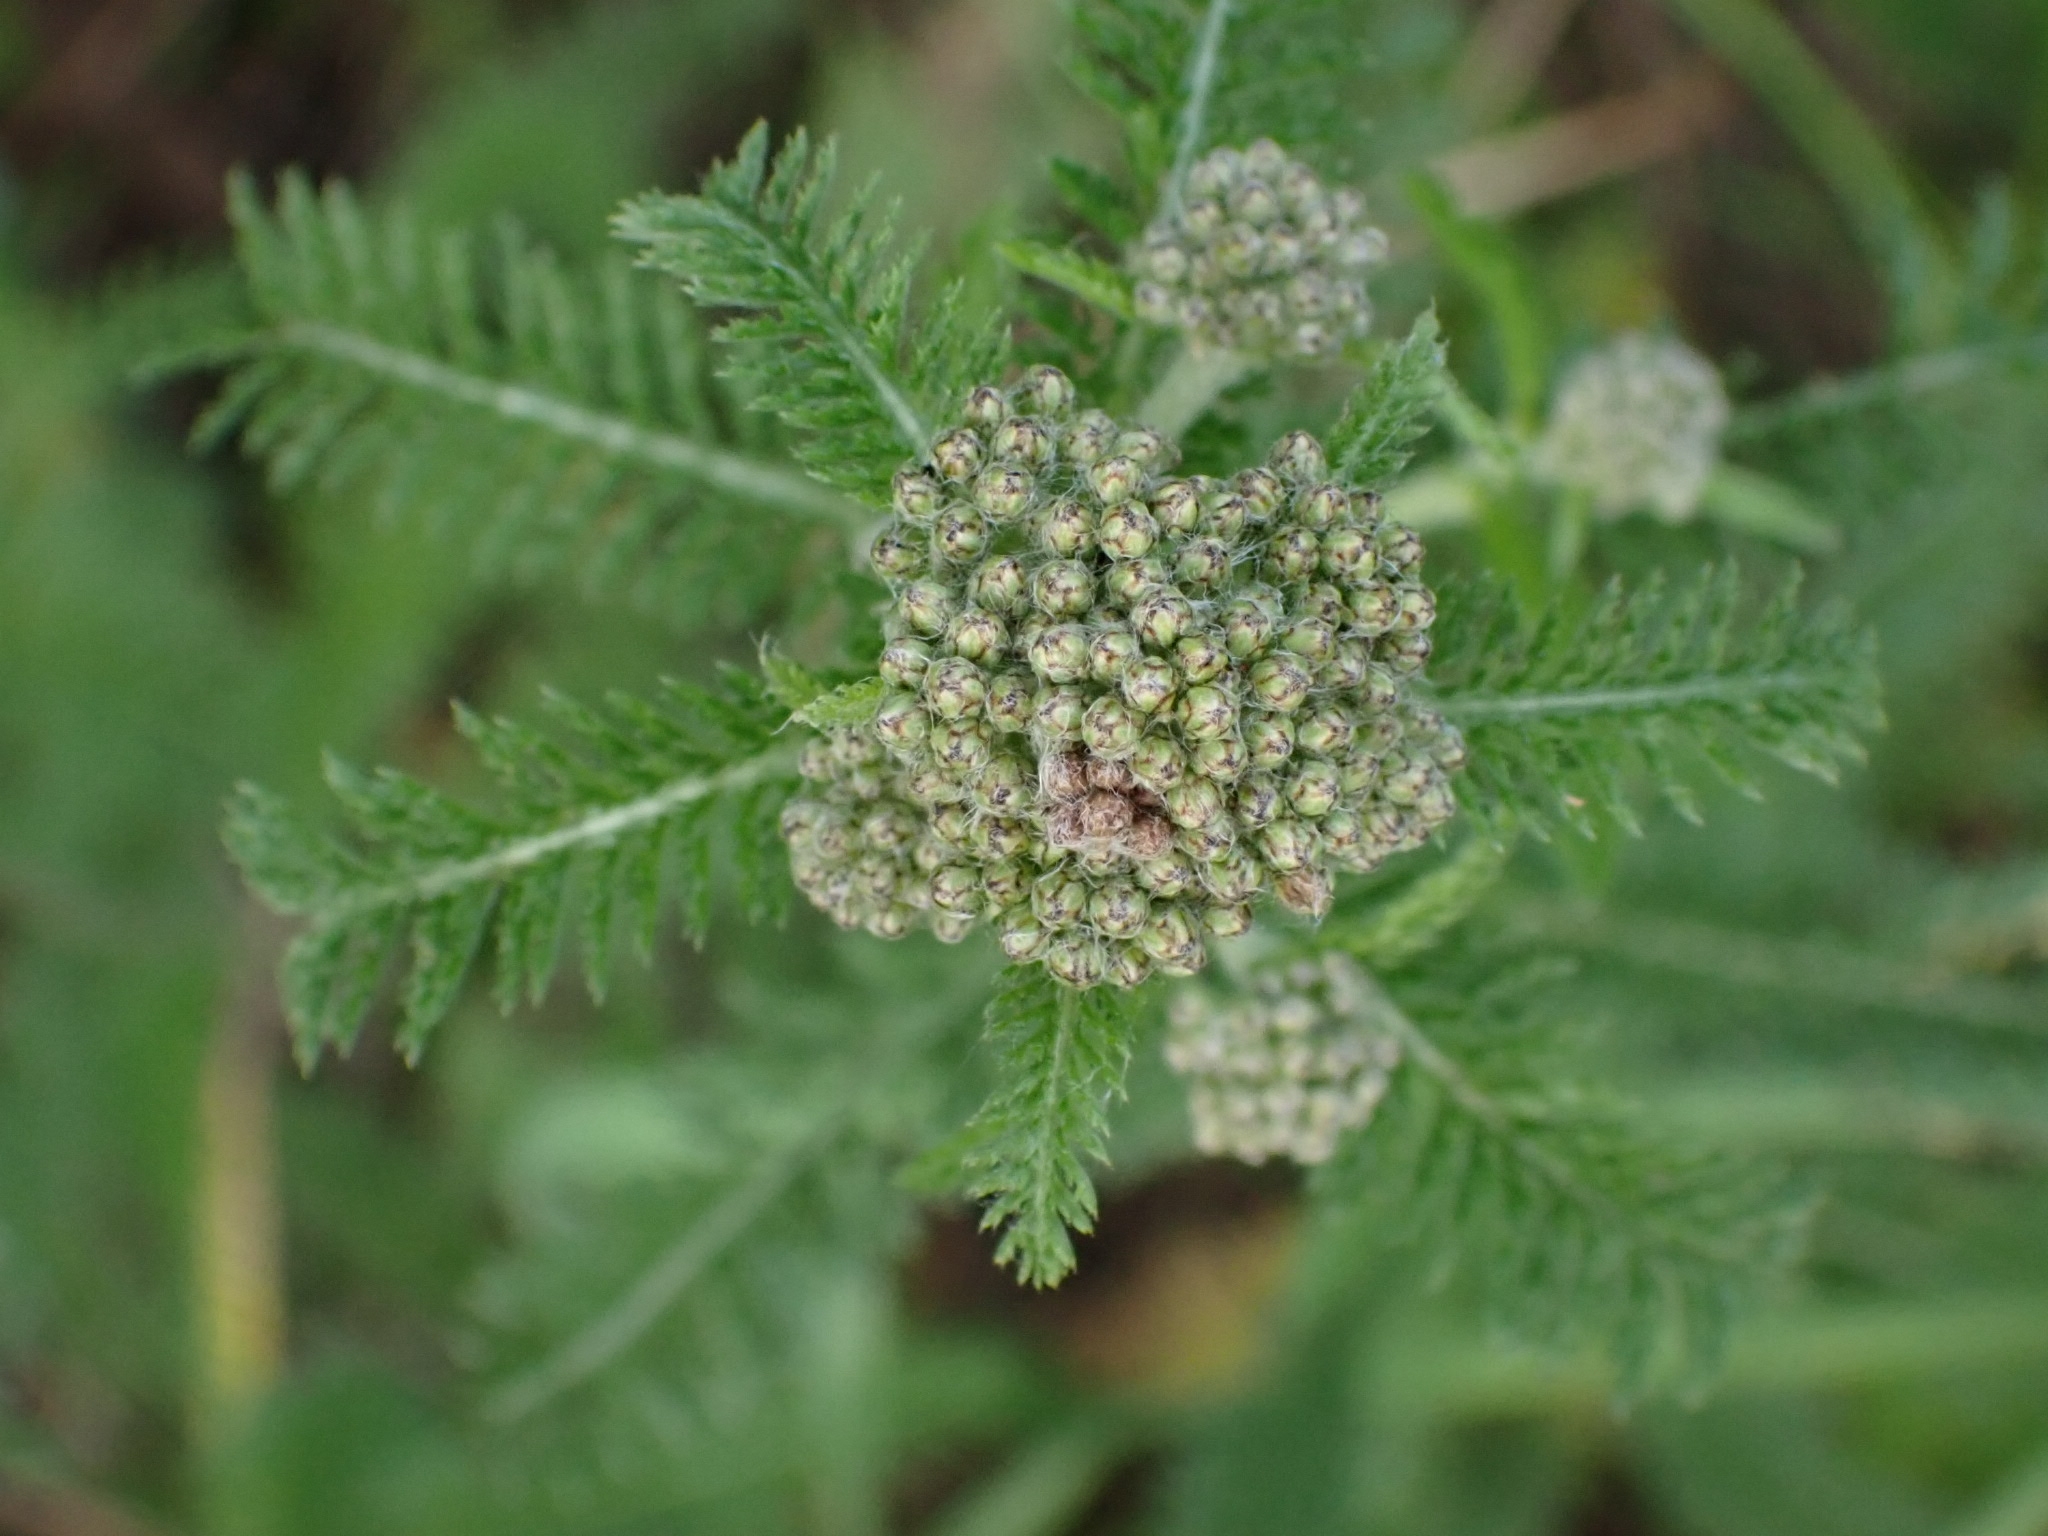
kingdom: Plantae
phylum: Tracheophyta
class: Magnoliopsida
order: Asterales
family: Asteraceae
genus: Achillea
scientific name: Achillea millefolium
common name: Yarrow
